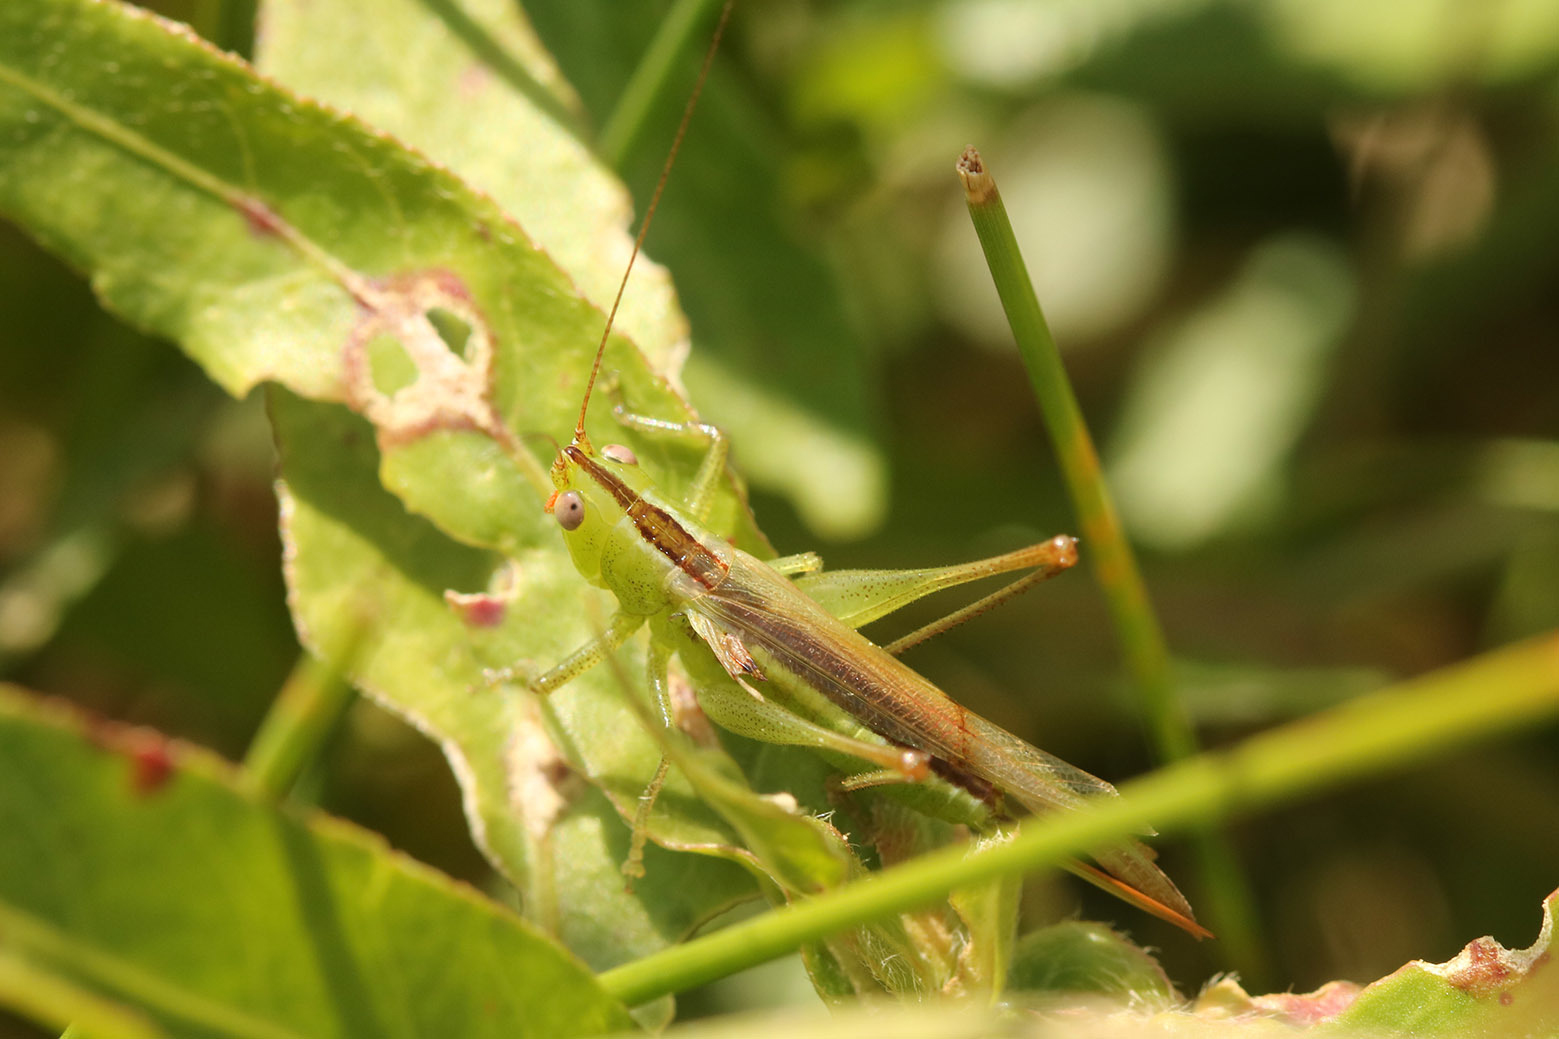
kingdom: Animalia
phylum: Arthropoda
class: Insecta
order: Orthoptera
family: Tettigoniidae
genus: Conocephalus
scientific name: Conocephalus longipes
